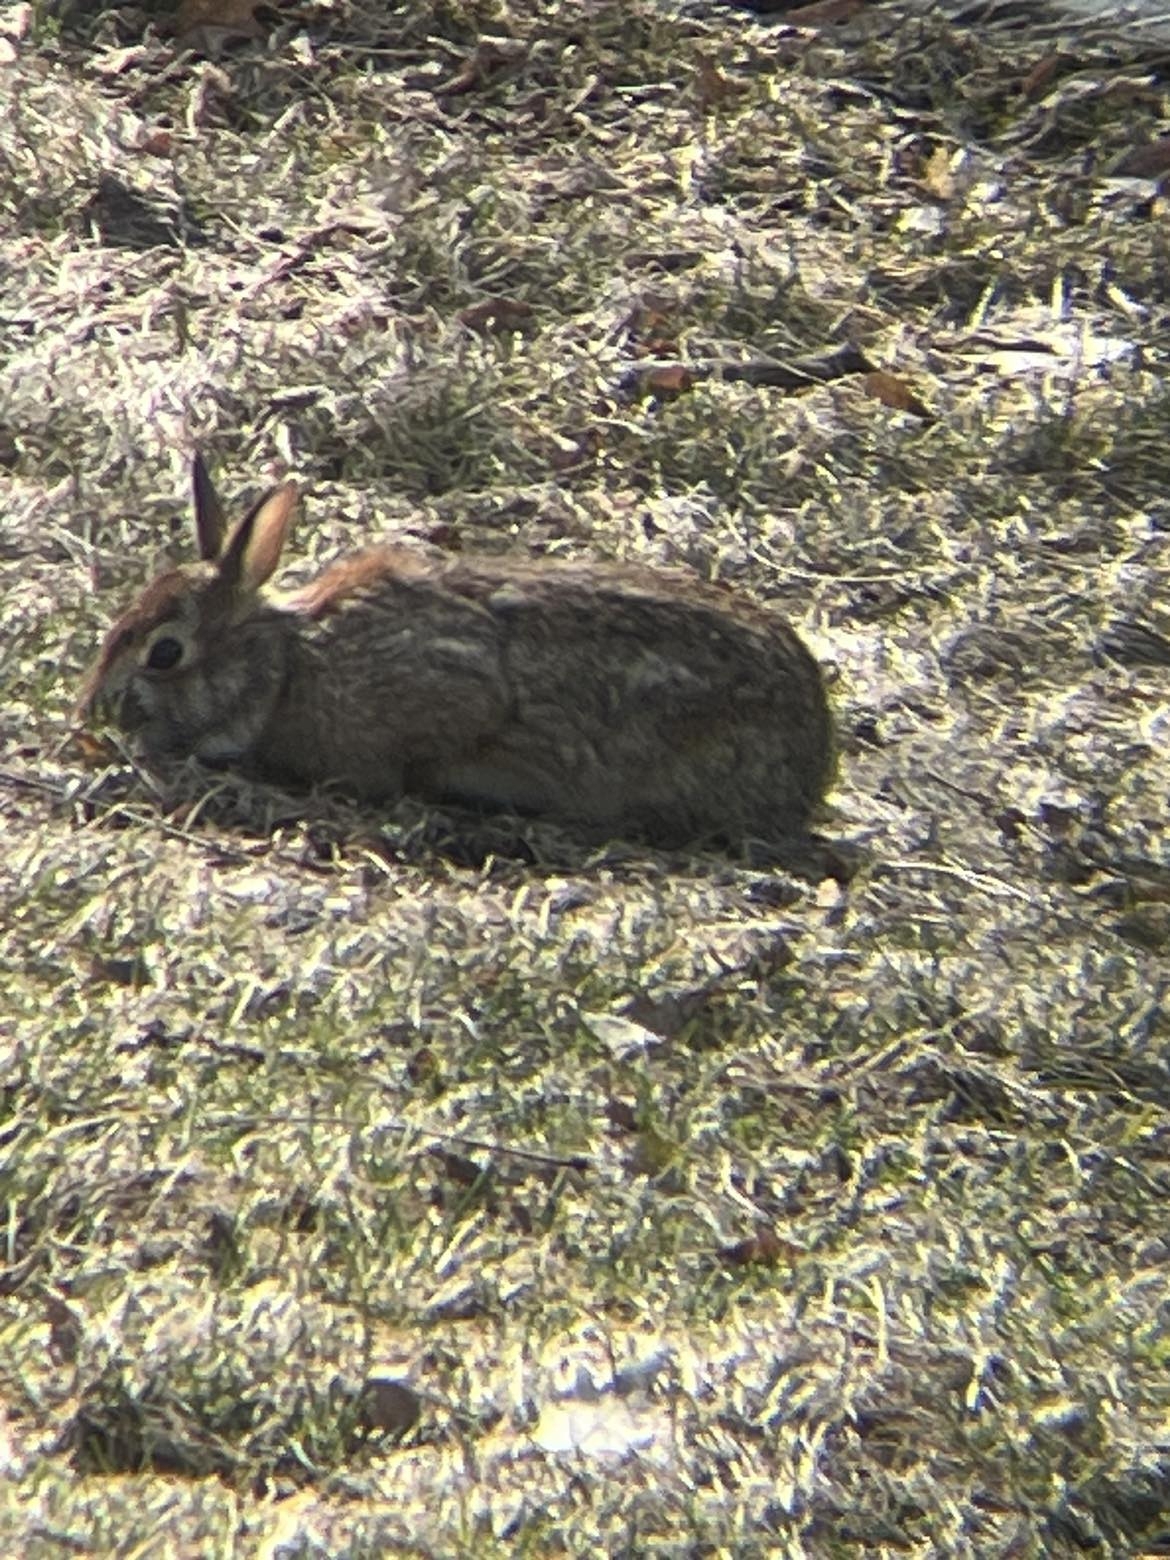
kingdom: Animalia
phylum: Chordata
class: Mammalia
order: Lagomorpha
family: Leporidae
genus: Sylvilagus
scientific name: Sylvilagus floridanus
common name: Eastern cottontail
